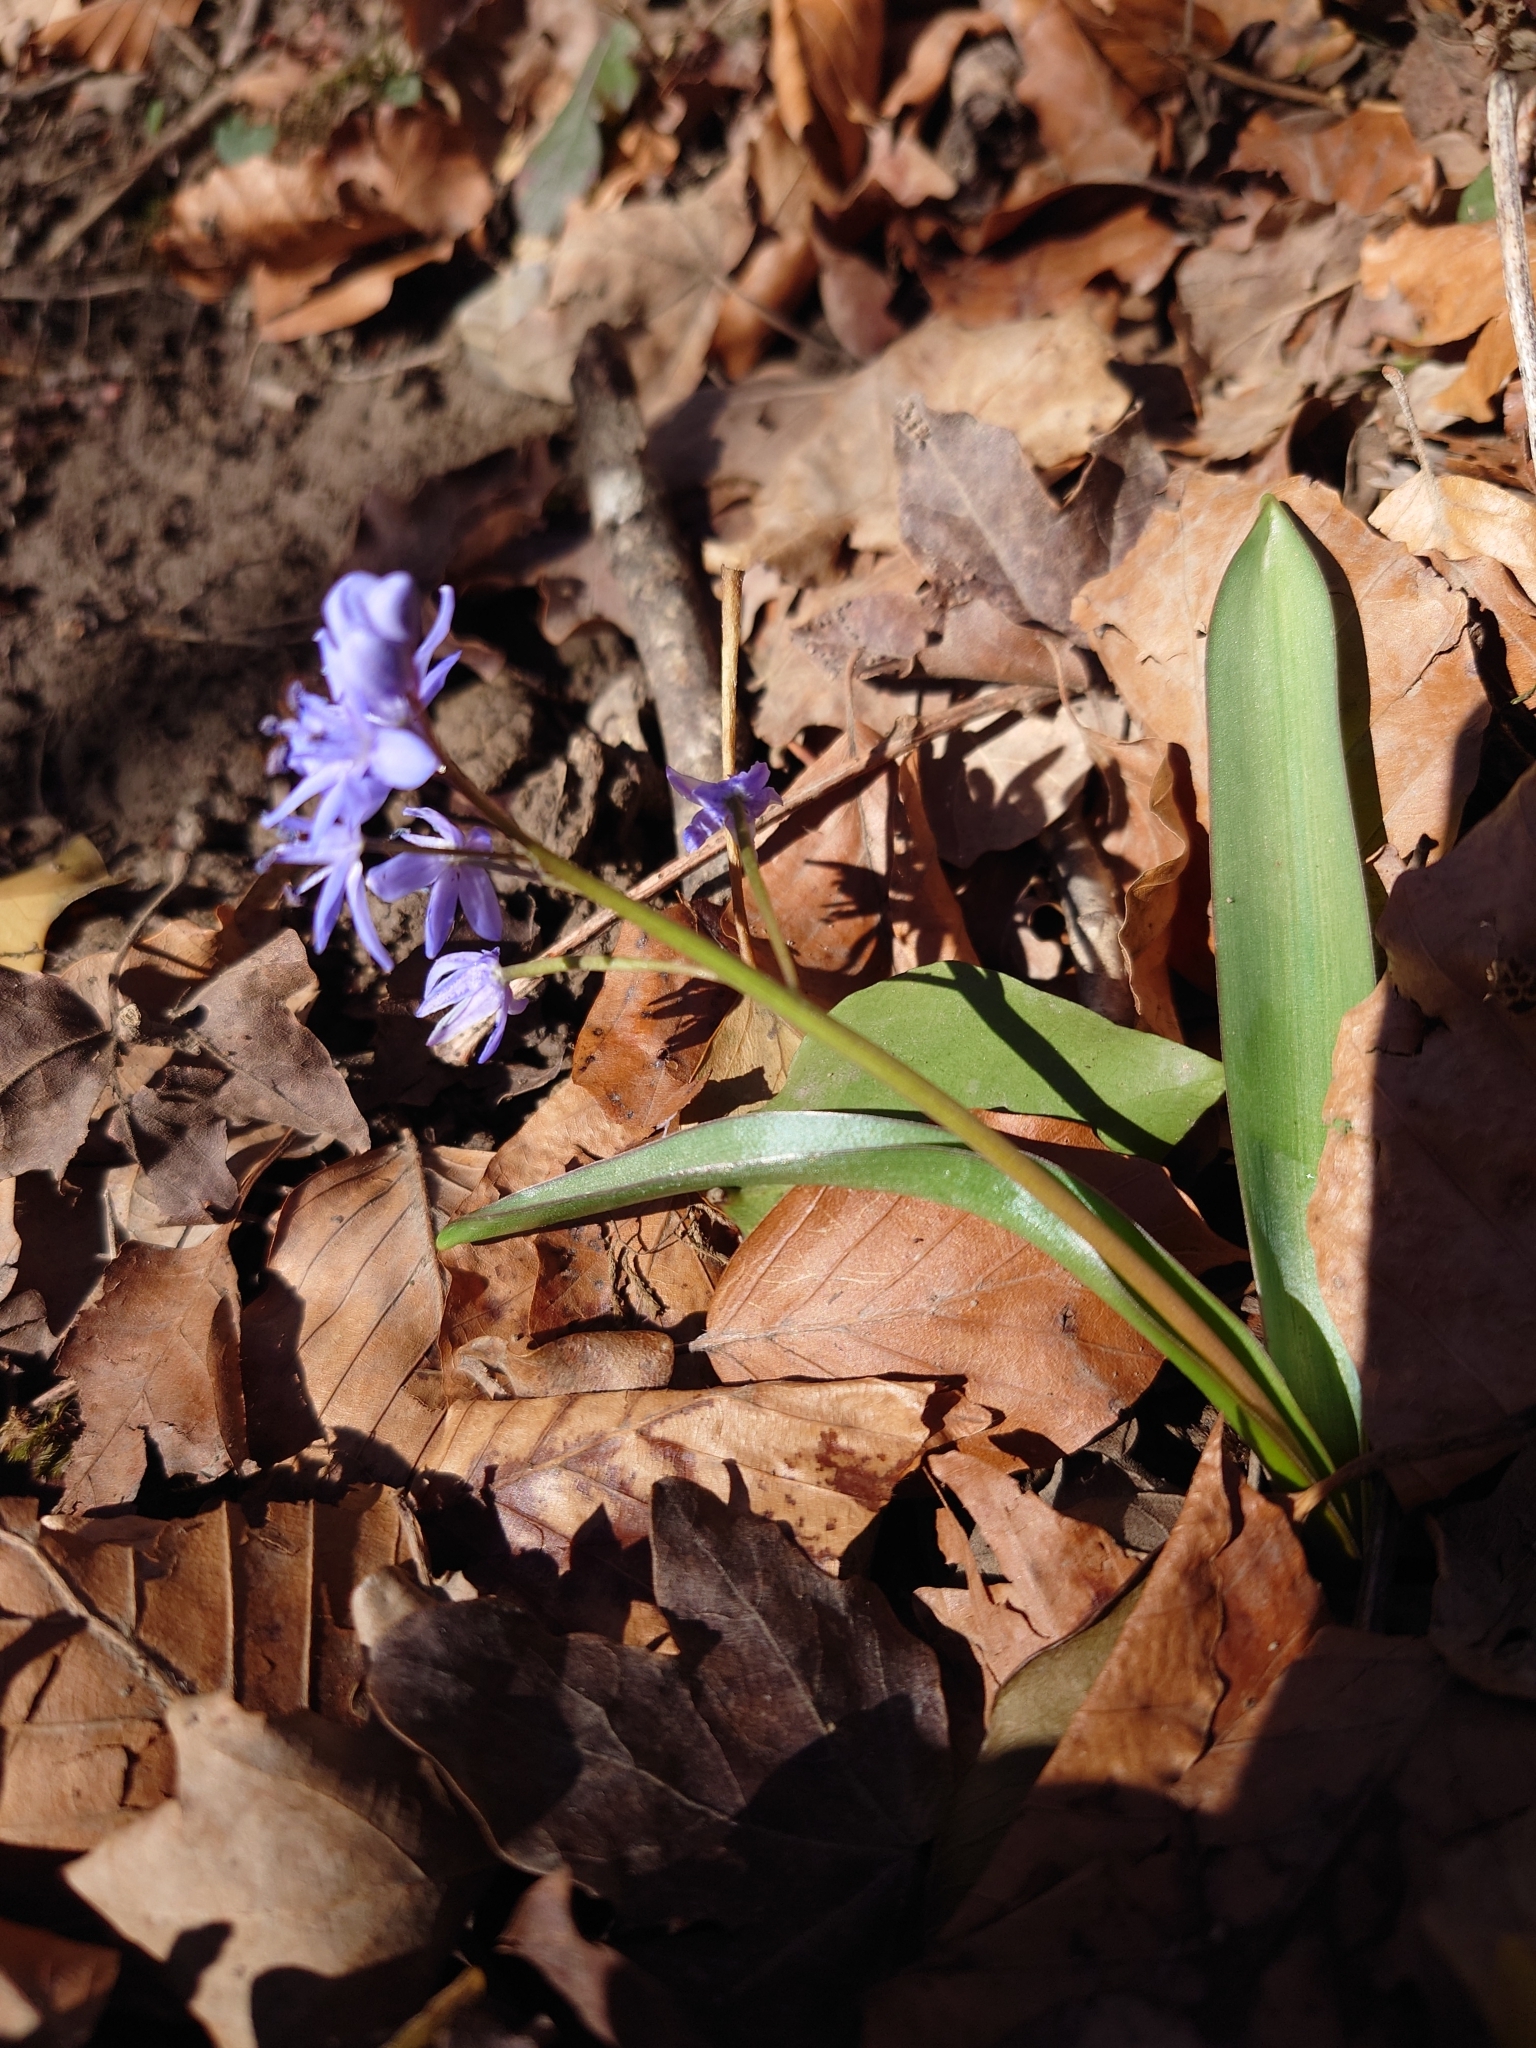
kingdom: Plantae
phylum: Tracheophyta
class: Liliopsida
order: Asparagales
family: Asparagaceae
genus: Scilla
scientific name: Scilla bifolia
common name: Alpine squill
